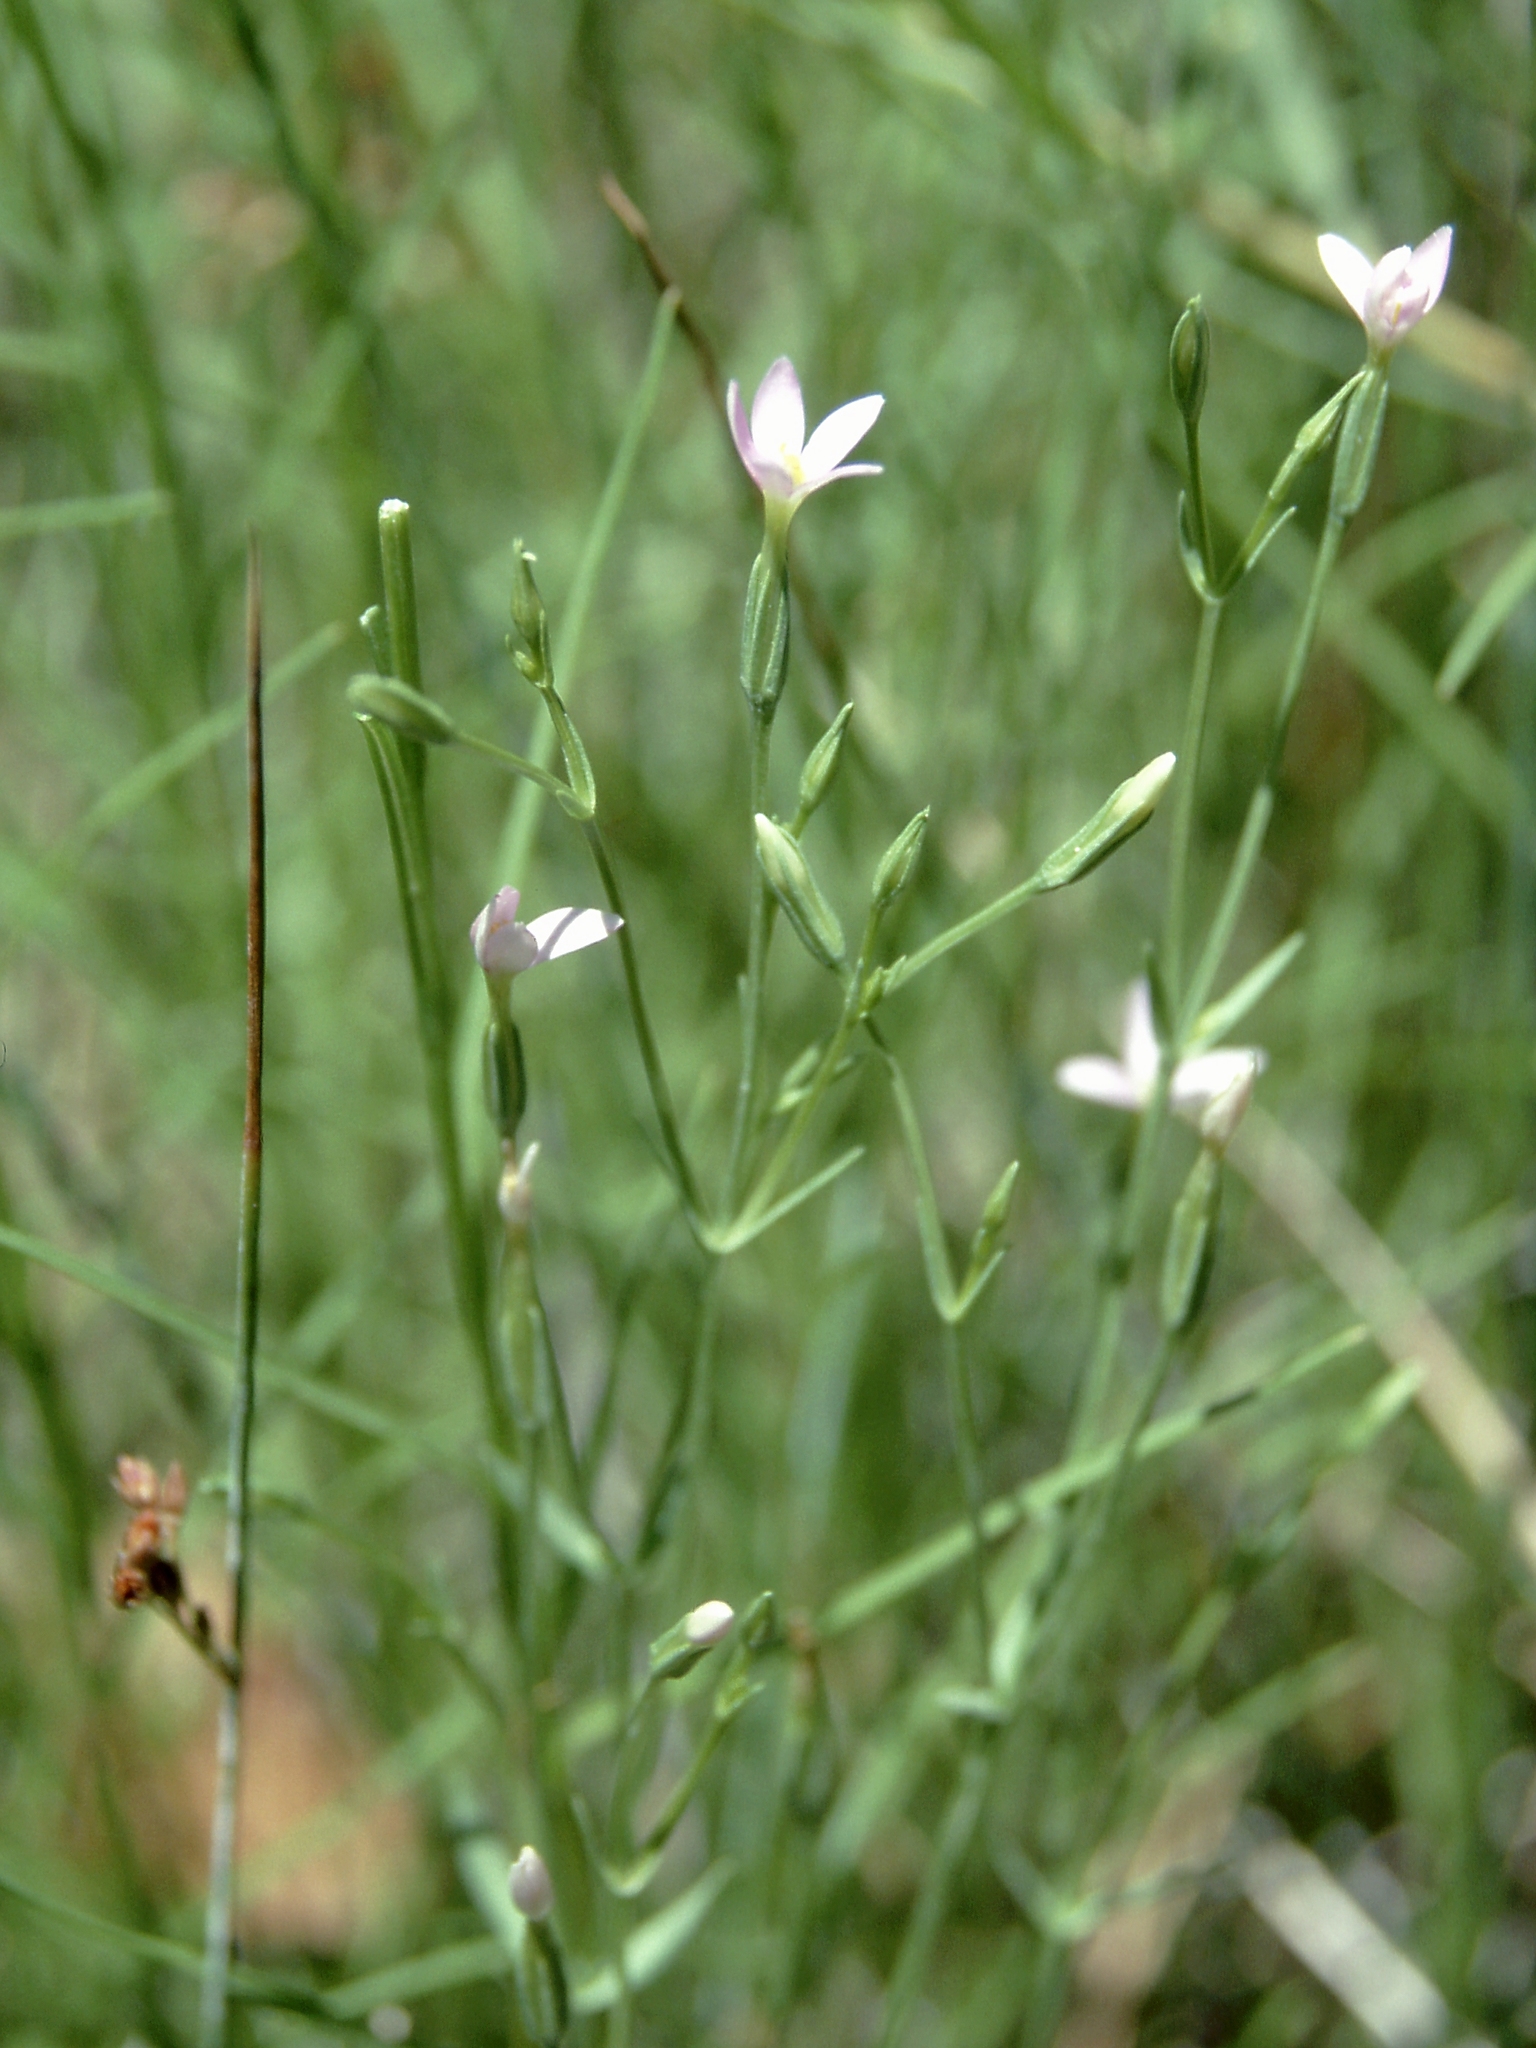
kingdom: Plantae
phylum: Tracheophyta
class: Magnoliopsida
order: Gentianales
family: Gentianaceae
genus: Zeltnera
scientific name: Zeltnera exaltata
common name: Great basin centaury
